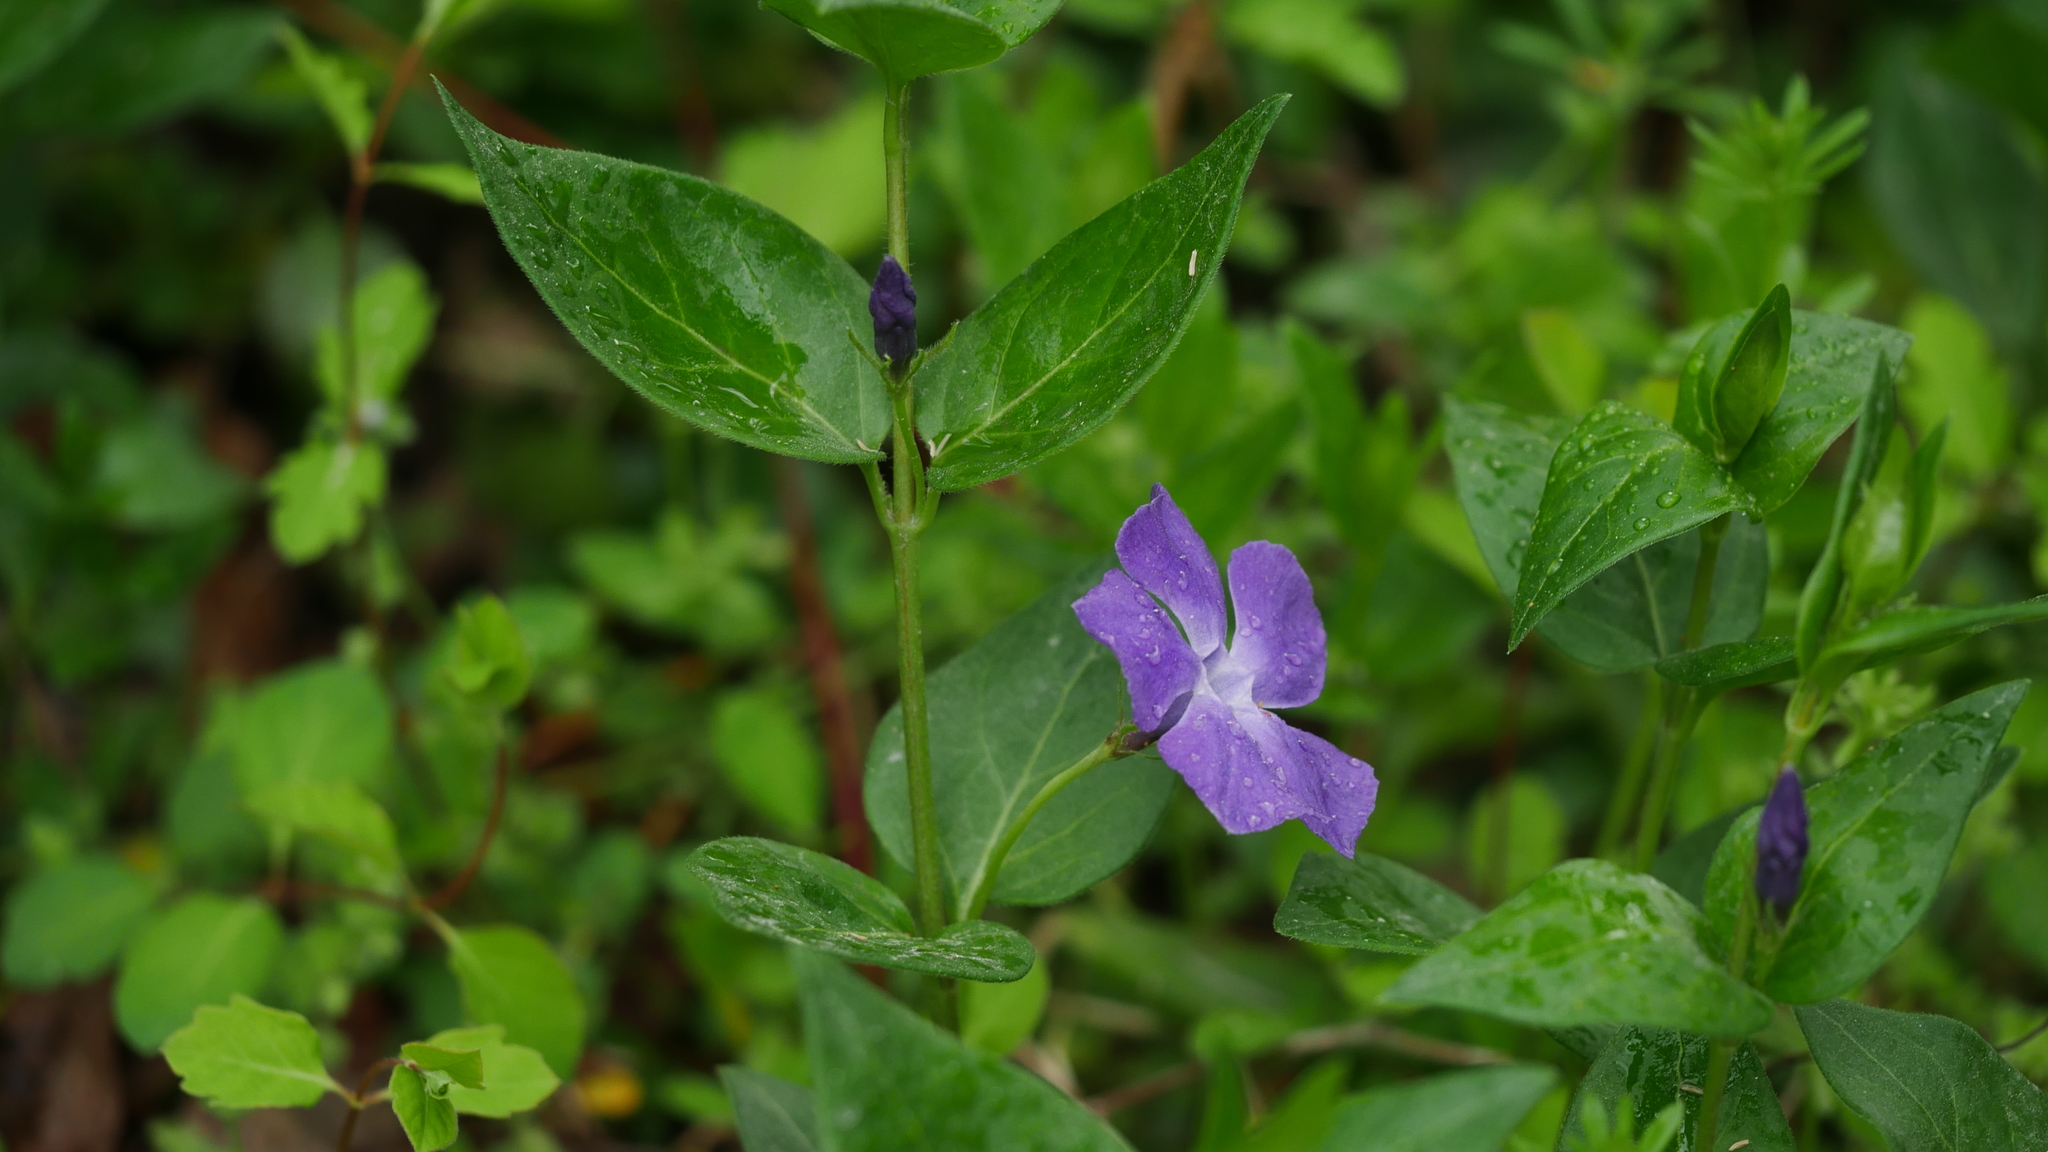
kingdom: Plantae
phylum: Tracheophyta
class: Magnoliopsida
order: Gentianales
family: Apocynaceae
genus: Vinca
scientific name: Vinca major
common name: Greater periwinkle
